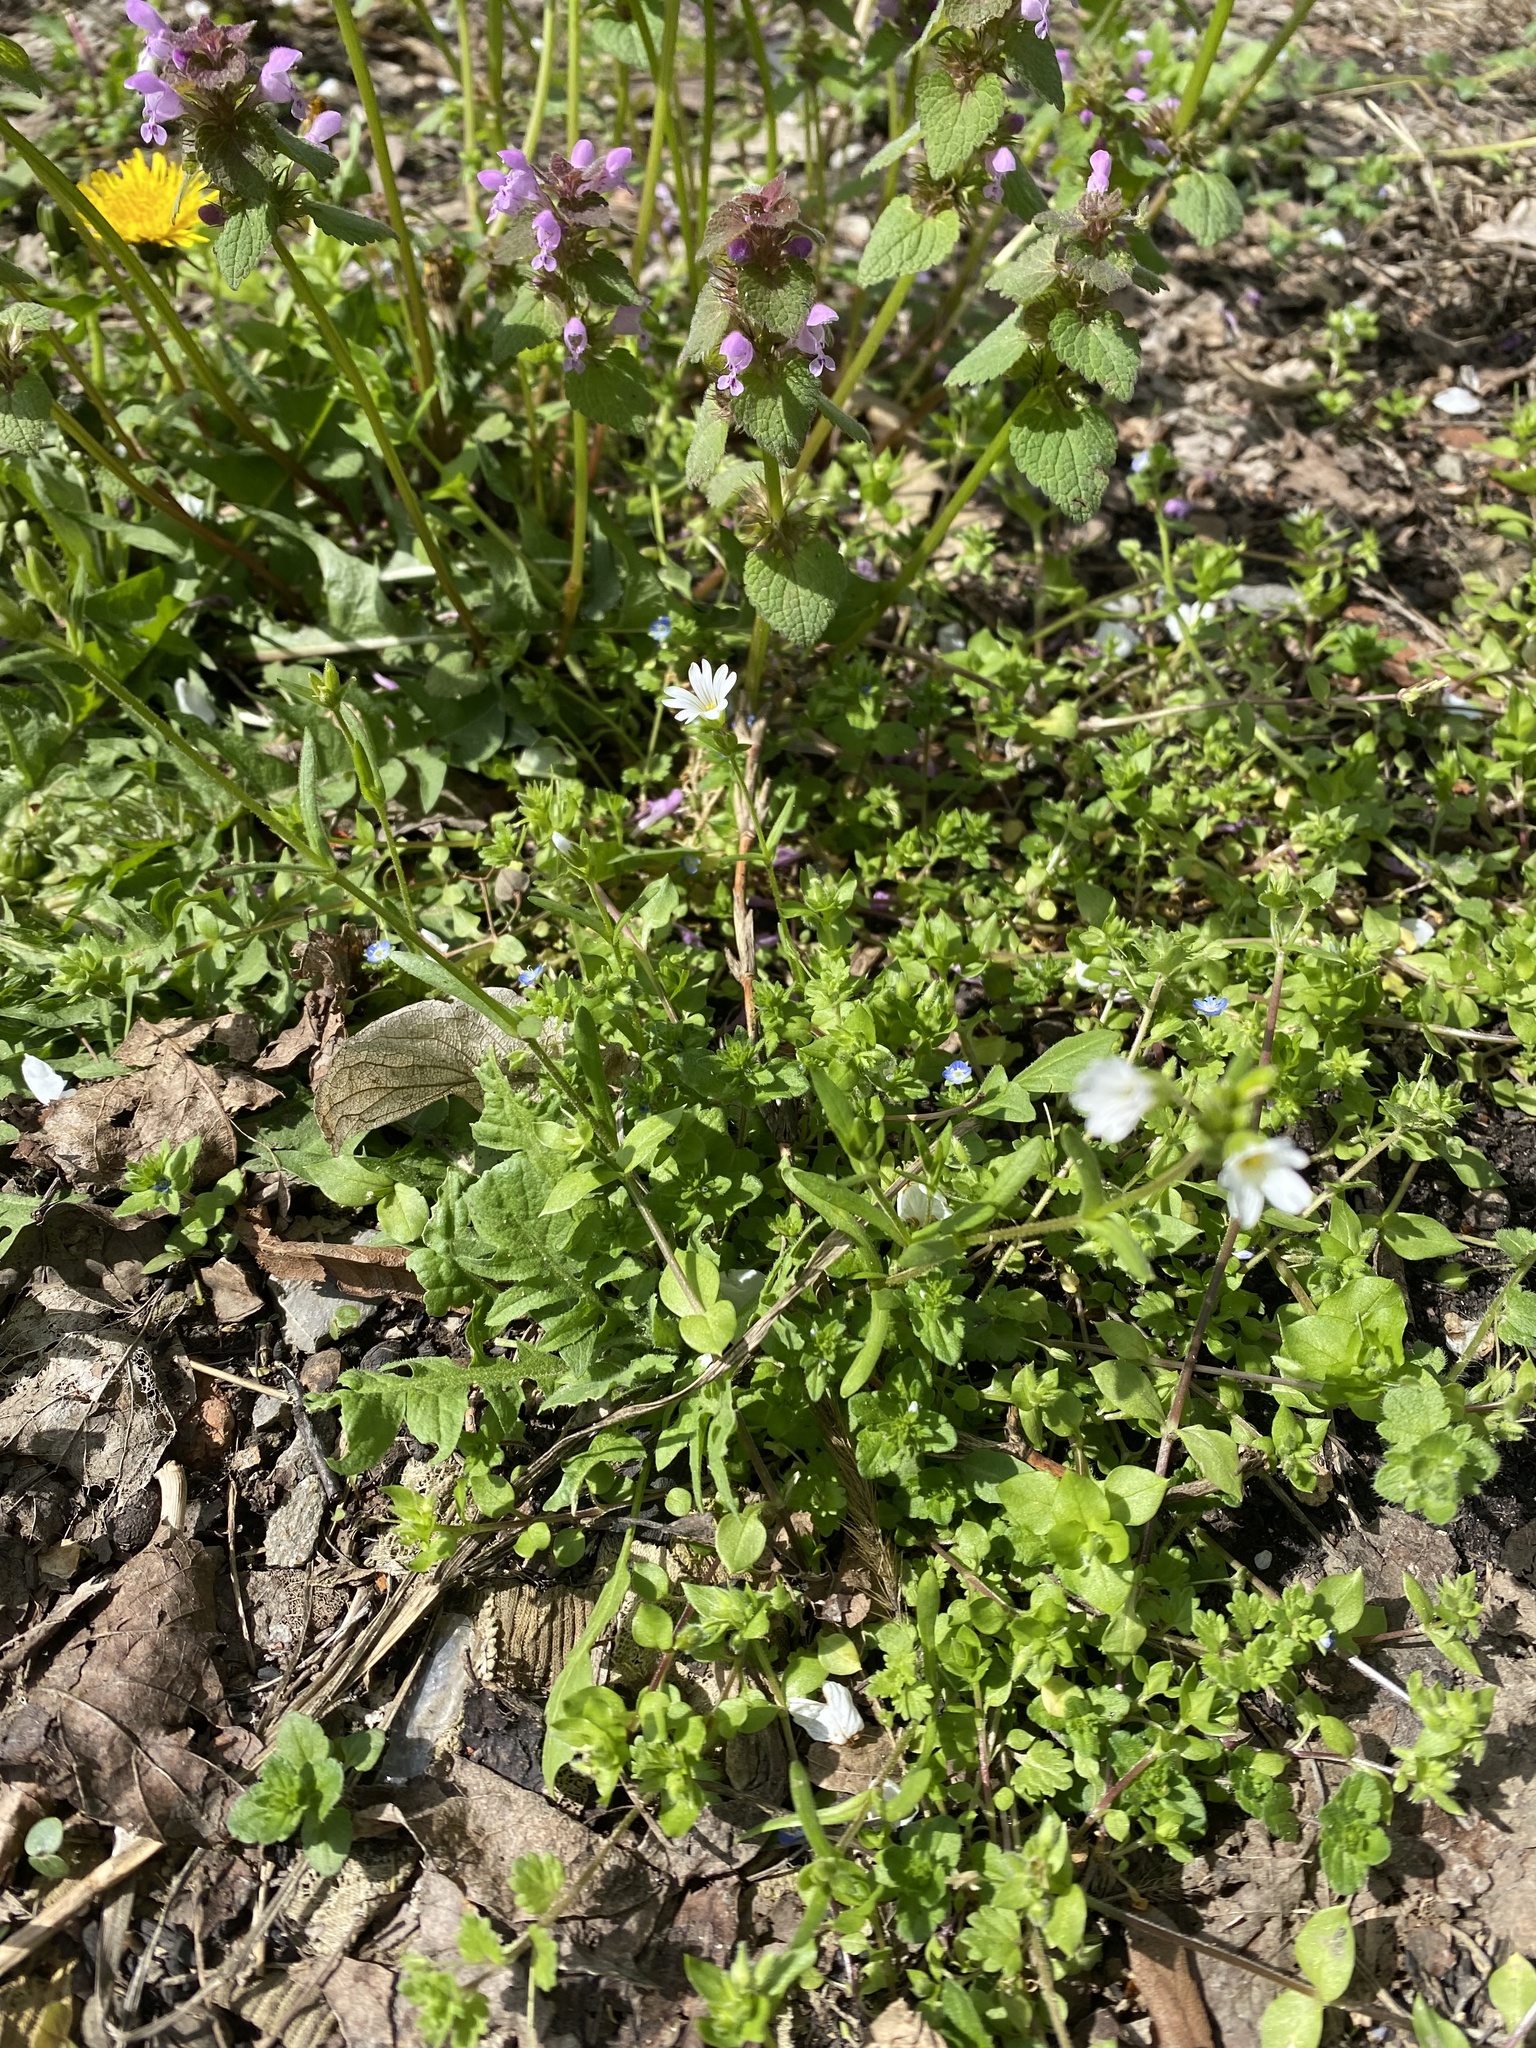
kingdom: Plantae
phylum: Tracheophyta
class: Magnoliopsida
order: Caryophyllales
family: Caryophyllaceae
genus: Dichodon
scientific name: Dichodon viscidum
